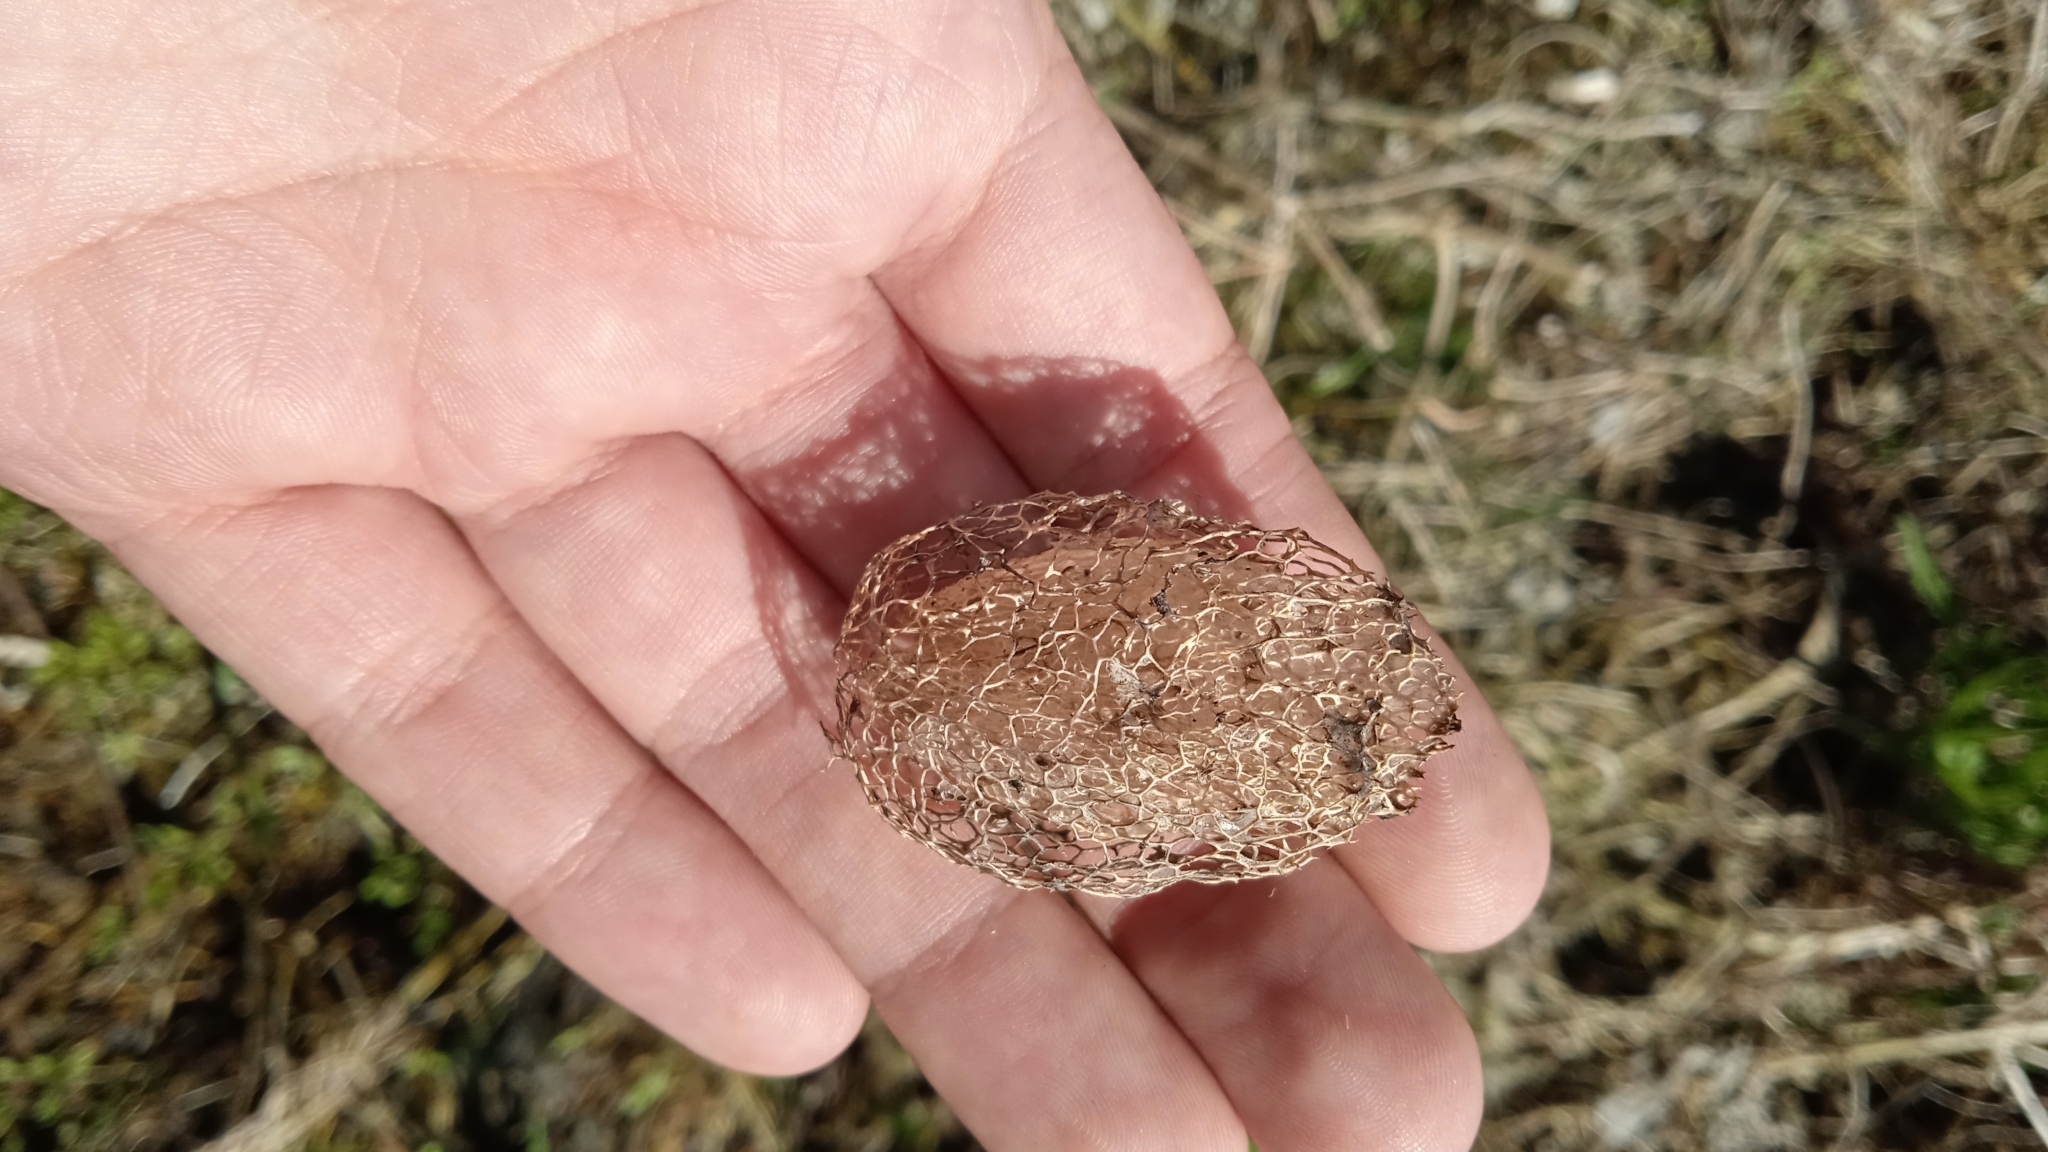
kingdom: Plantae
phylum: Tracheophyta
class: Magnoliopsida
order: Cucurbitales
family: Cucurbitaceae
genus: Echinocystis
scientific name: Echinocystis lobata
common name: Wild cucumber
